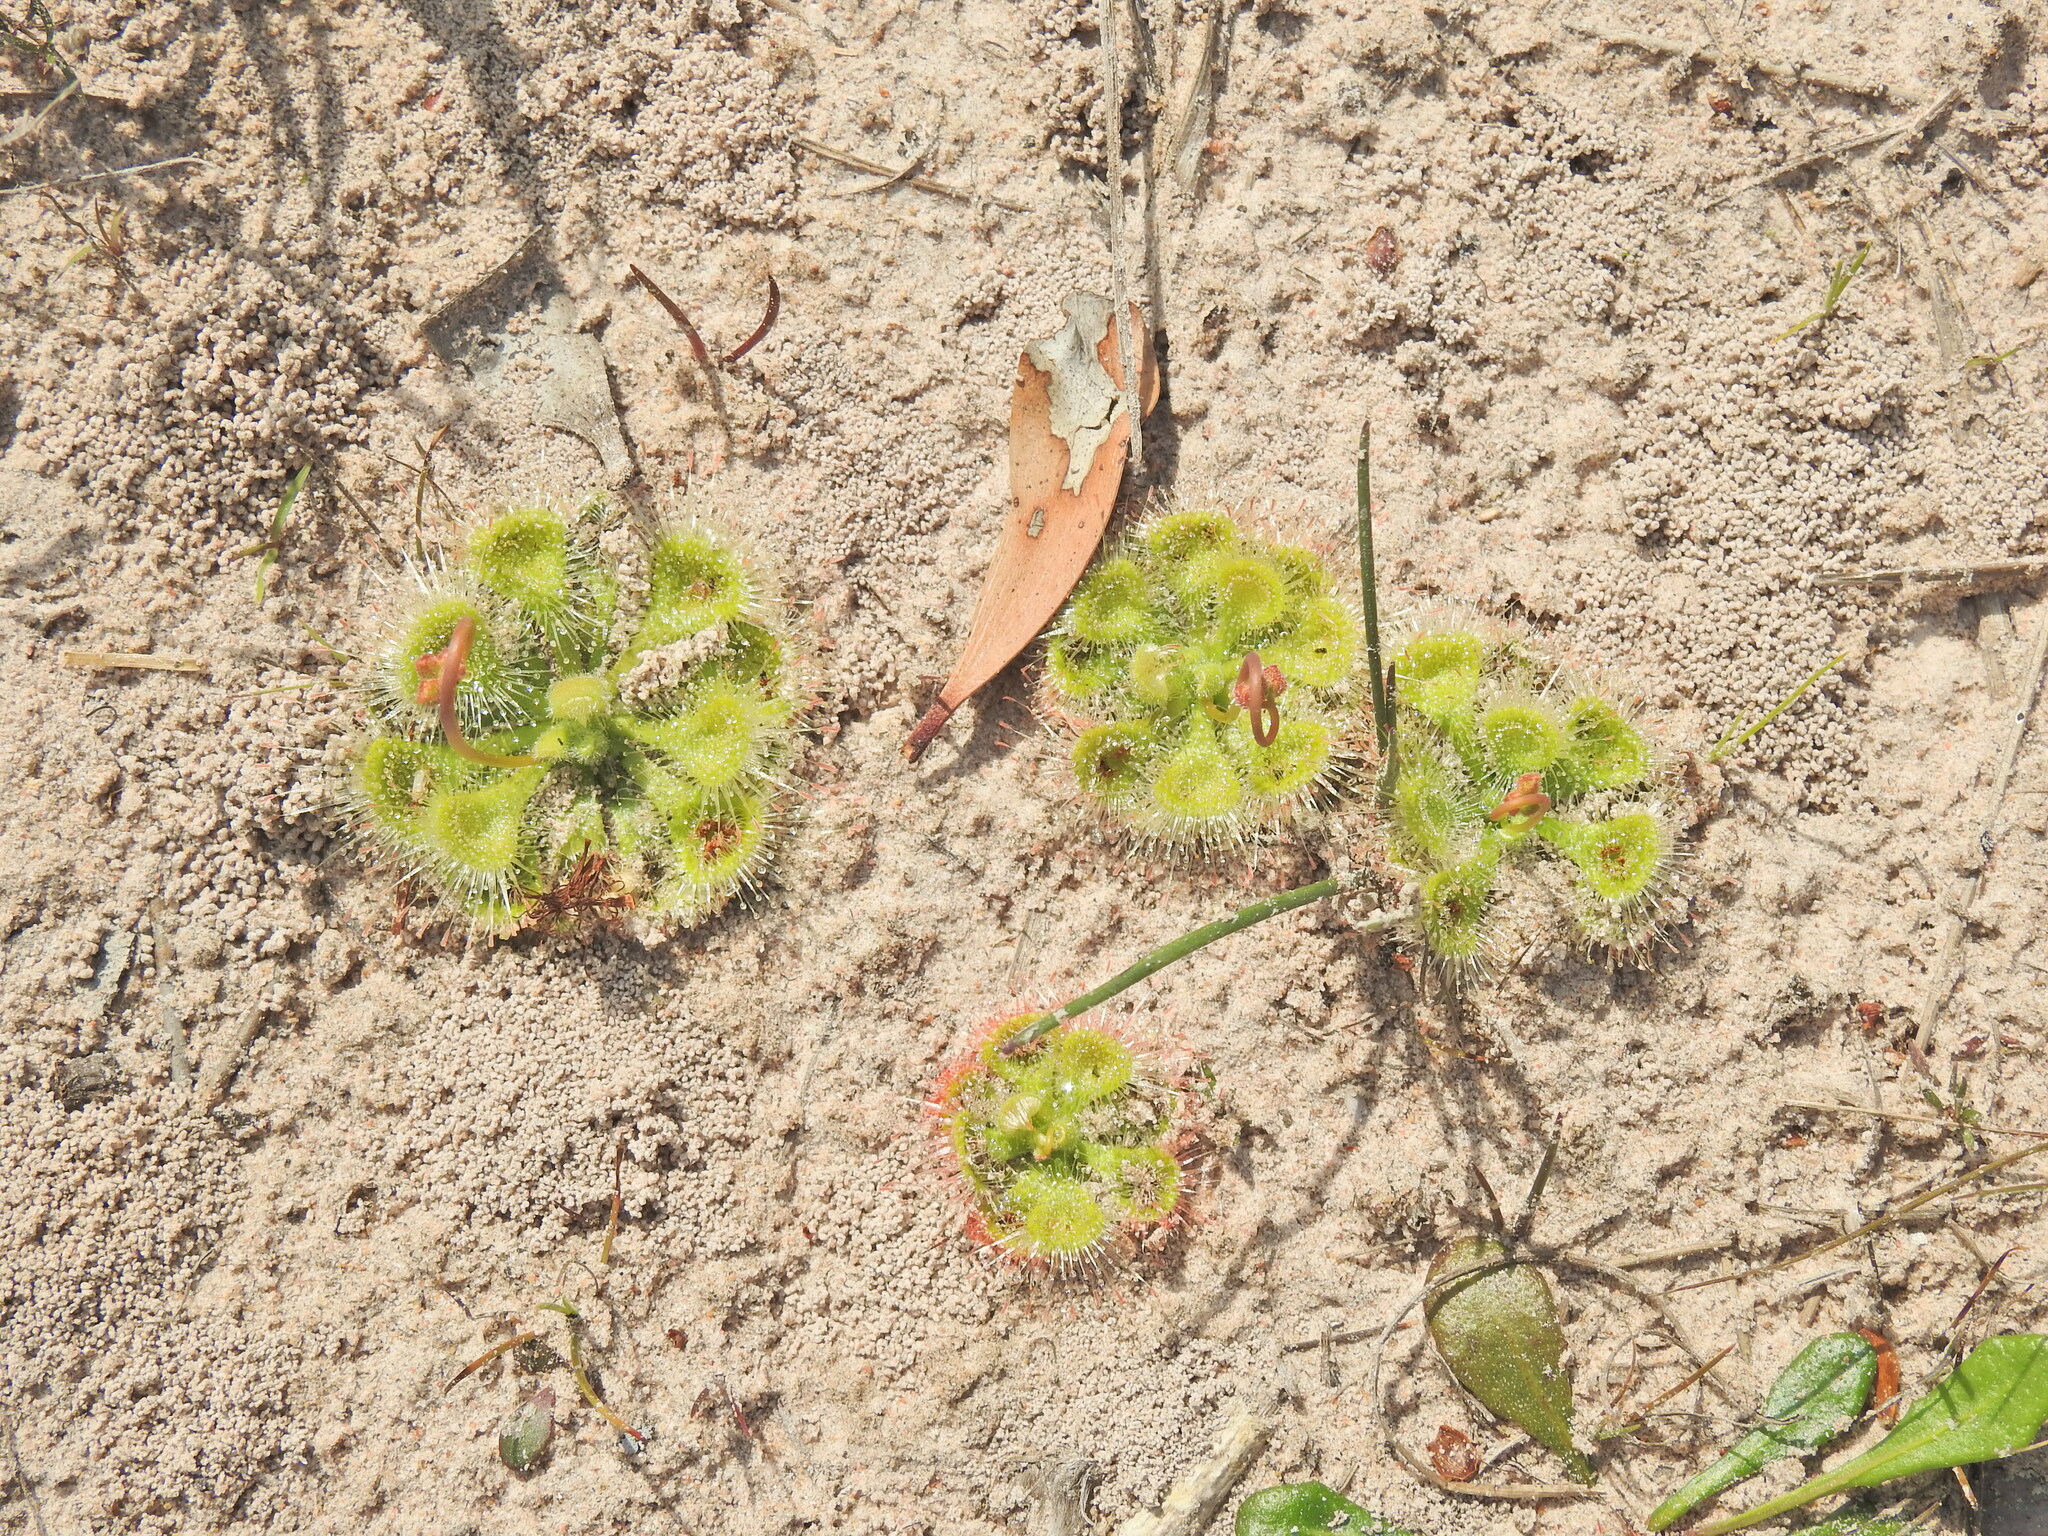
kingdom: Plantae
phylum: Tracheophyta
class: Magnoliopsida
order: Caryophyllales
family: Droseraceae
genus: Drosera
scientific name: Drosera spatulata
